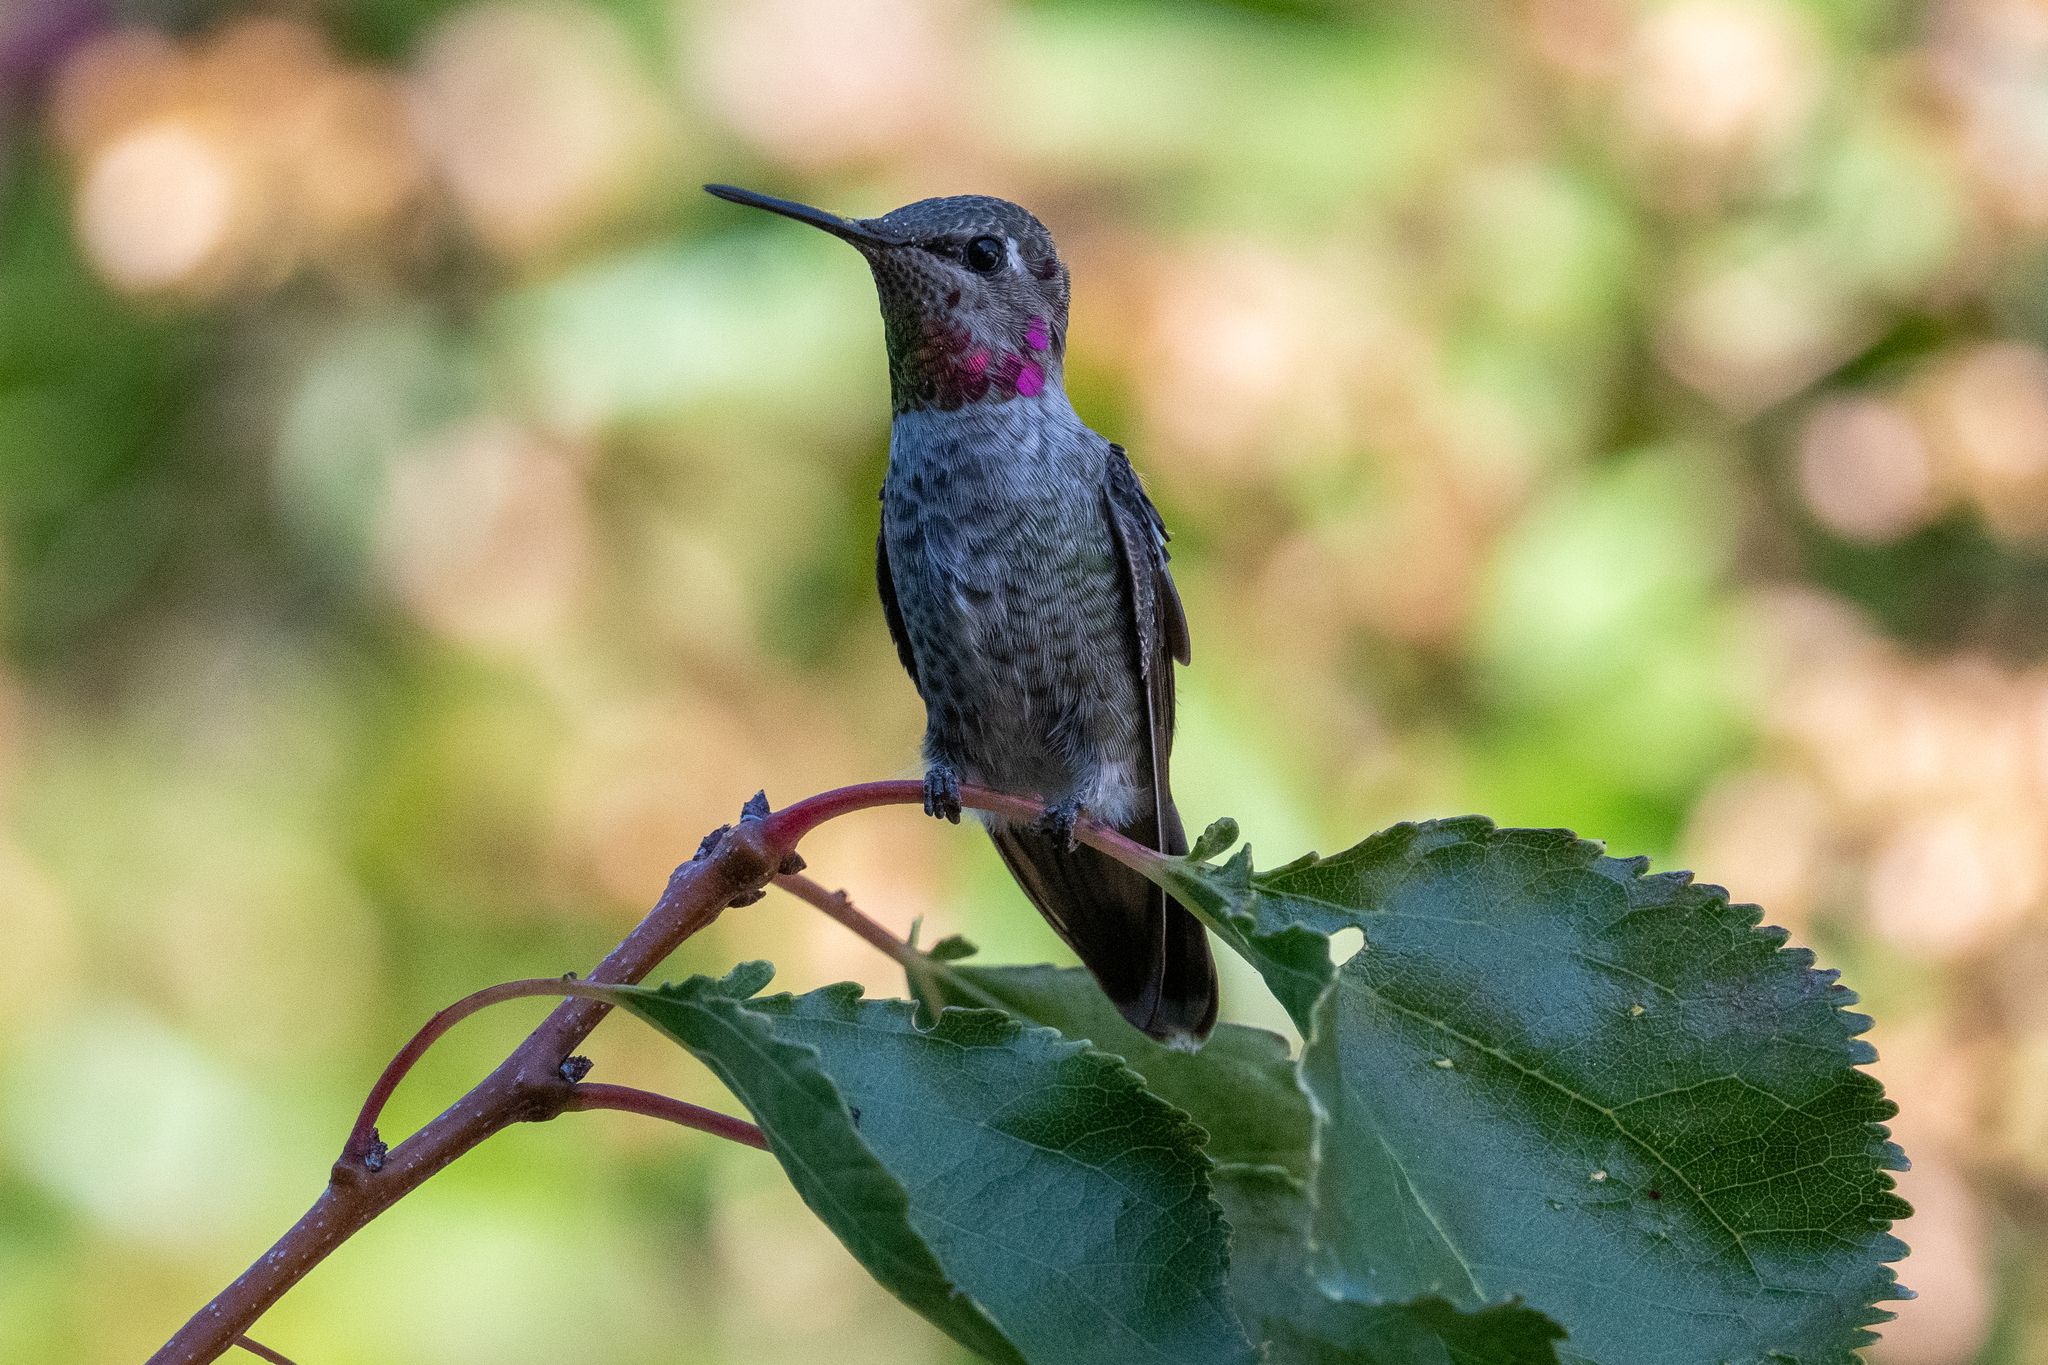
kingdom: Animalia
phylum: Chordata
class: Aves
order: Apodiformes
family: Trochilidae
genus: Calypte
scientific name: Calypte anna
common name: Anna's hummingbird
